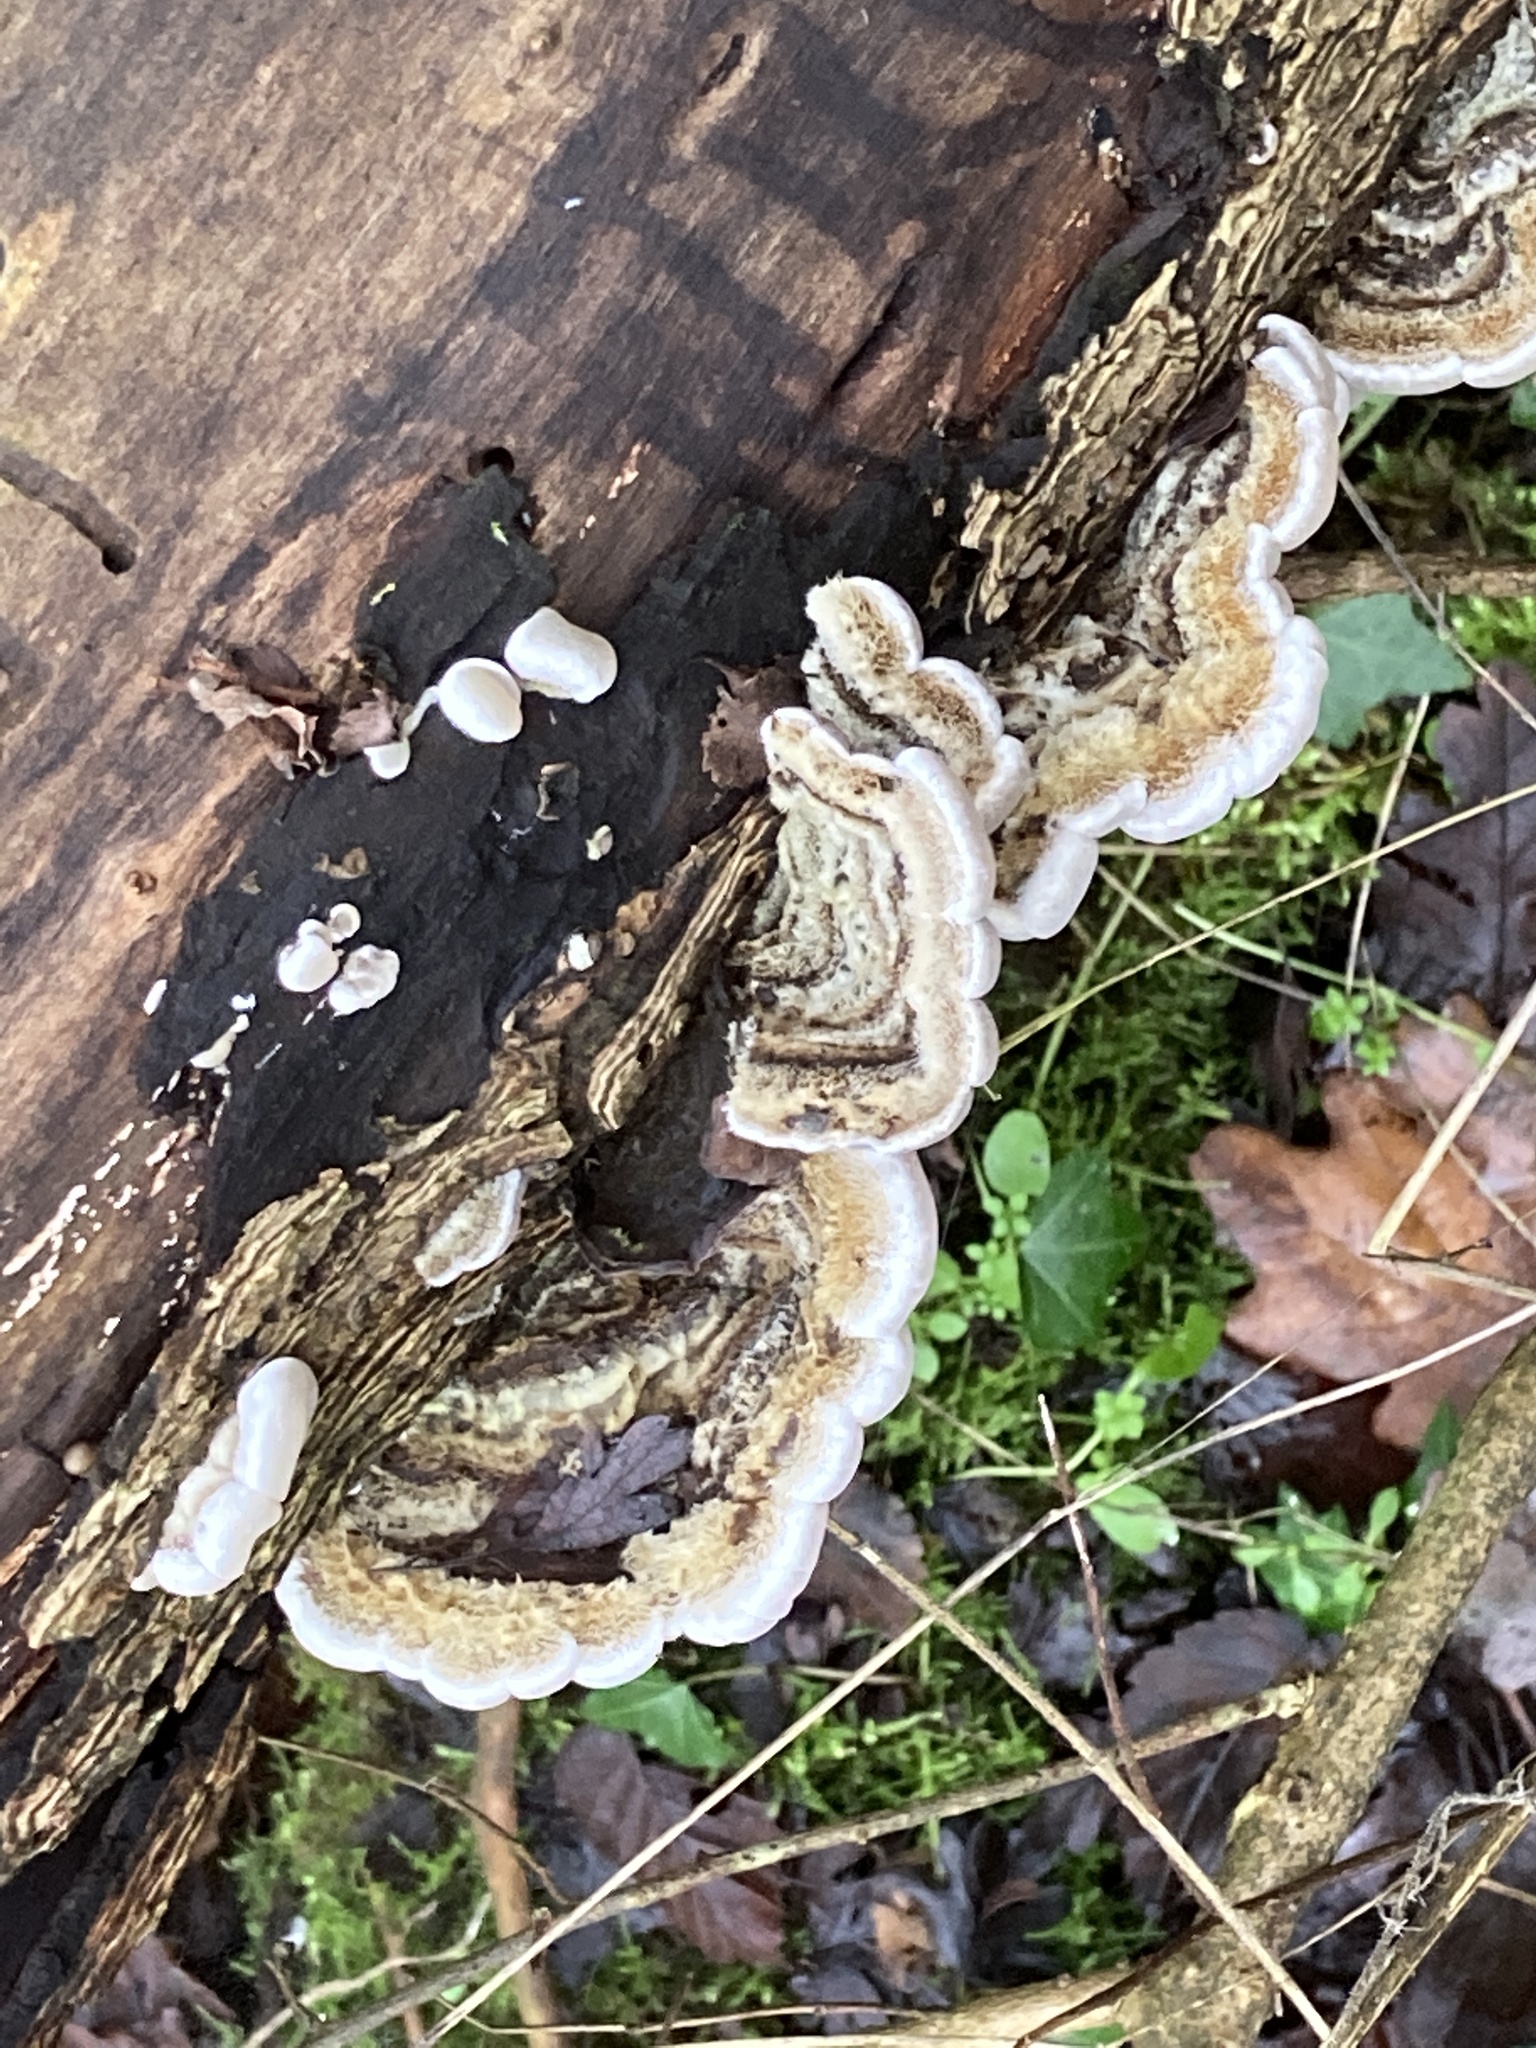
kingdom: Fungi
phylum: Basidiomycota
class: Agaricomycetes
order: Auriculariales
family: Auriculariaceae
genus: Auricularia
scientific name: Auricularia mesenterica
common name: Tripe fungus
